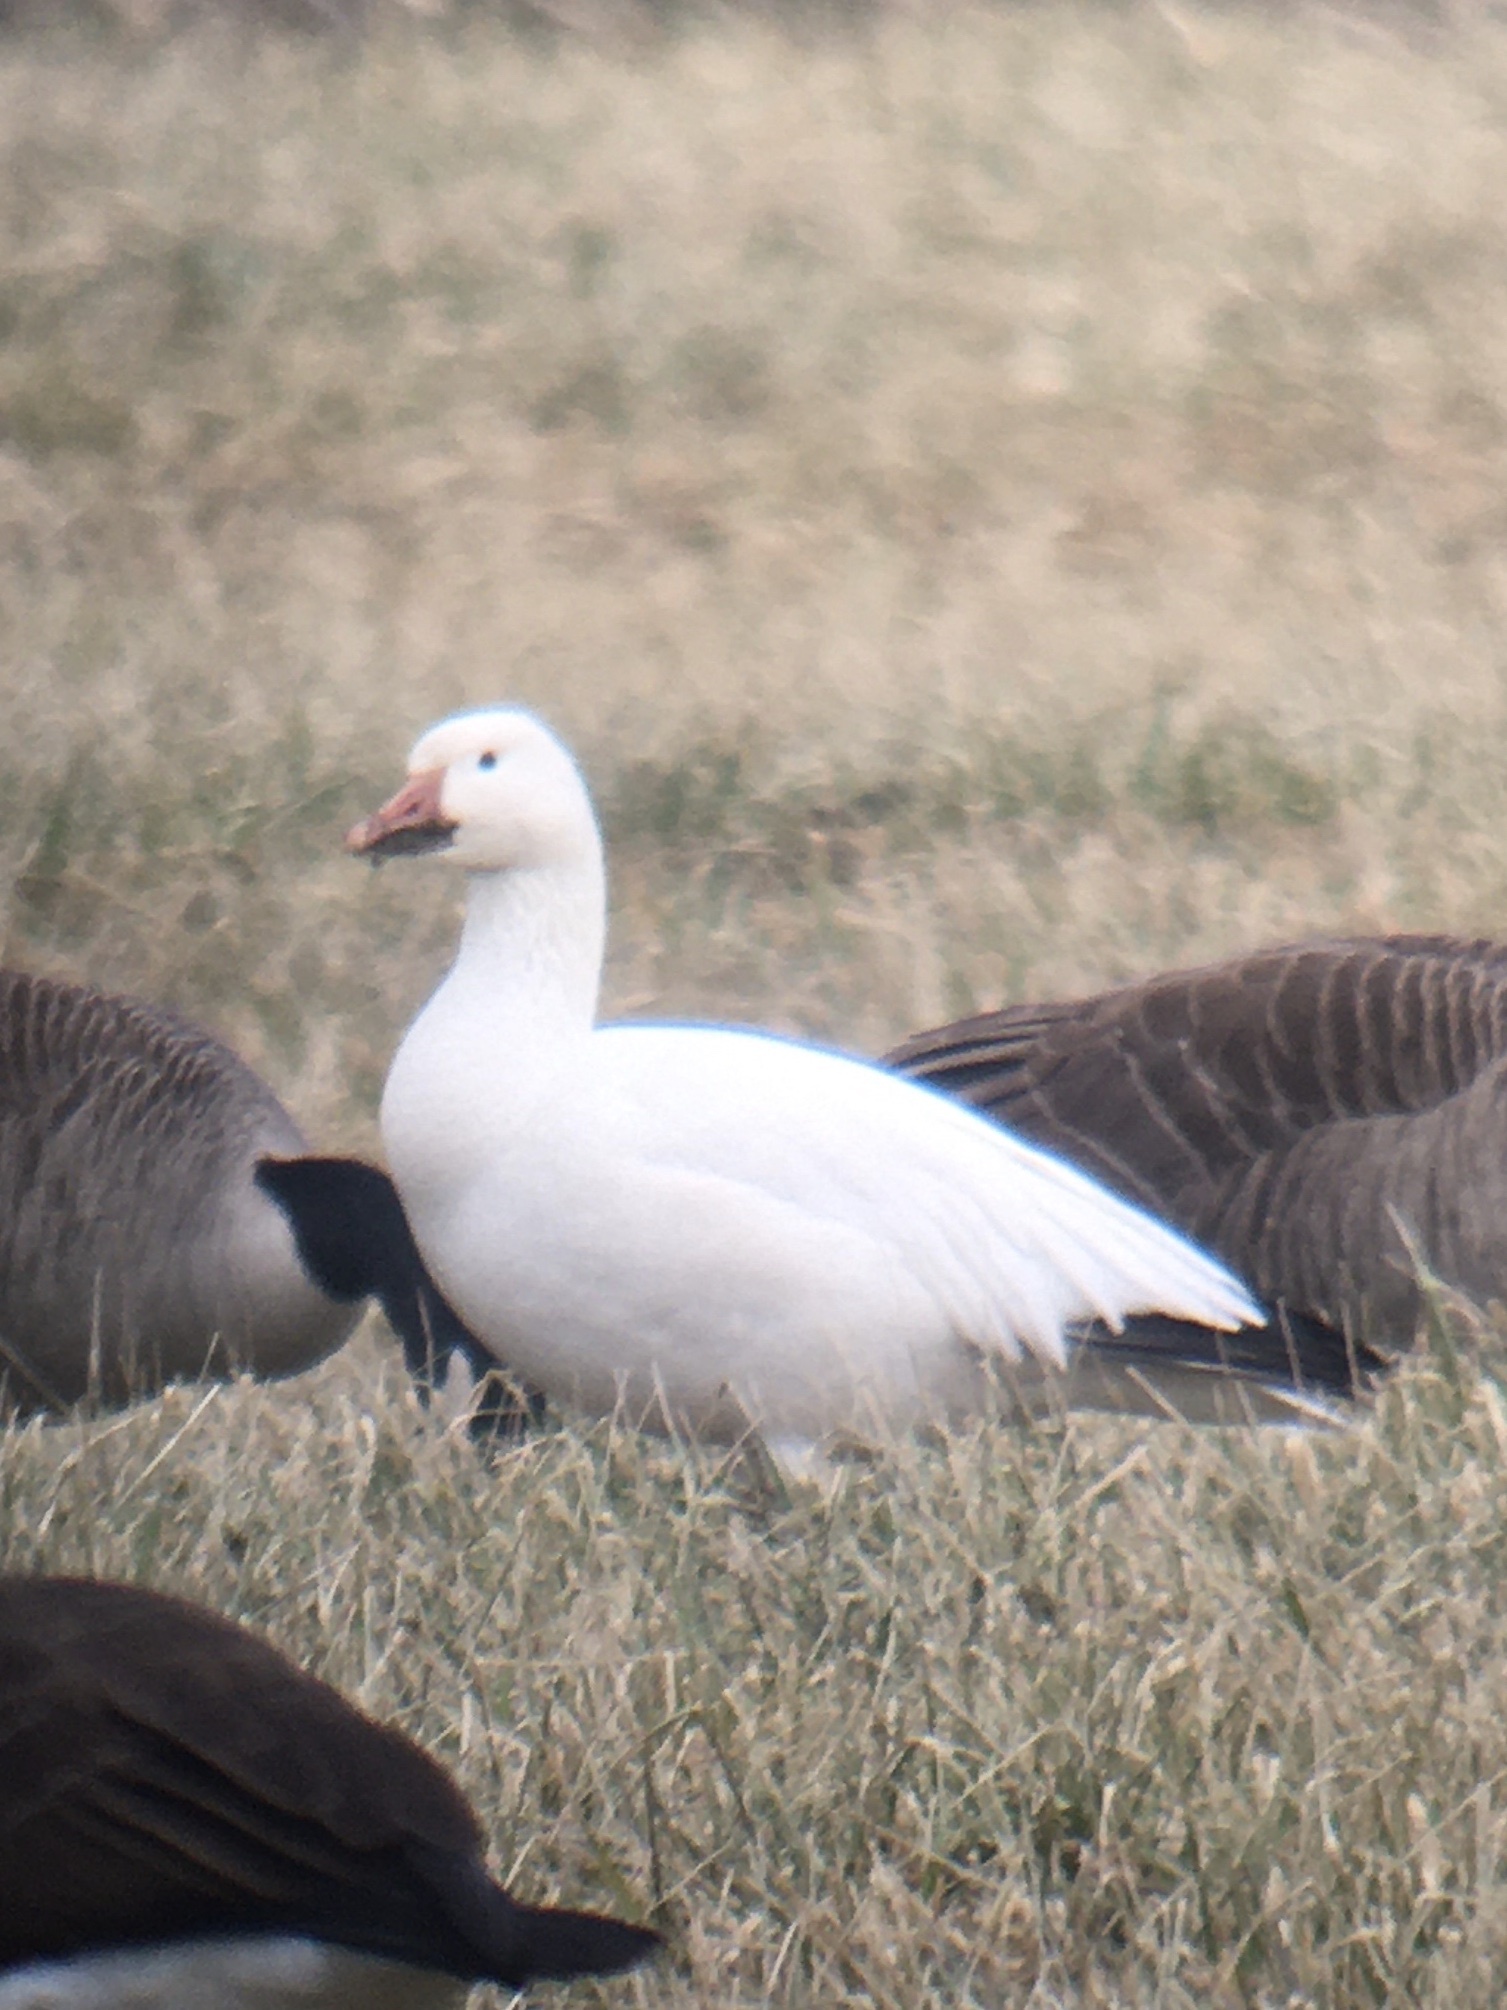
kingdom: Animalia
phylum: Chordata
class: Aves
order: Anseriformes
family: Anatidae
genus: Anser
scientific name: Anser caerulescens
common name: Snow goose
